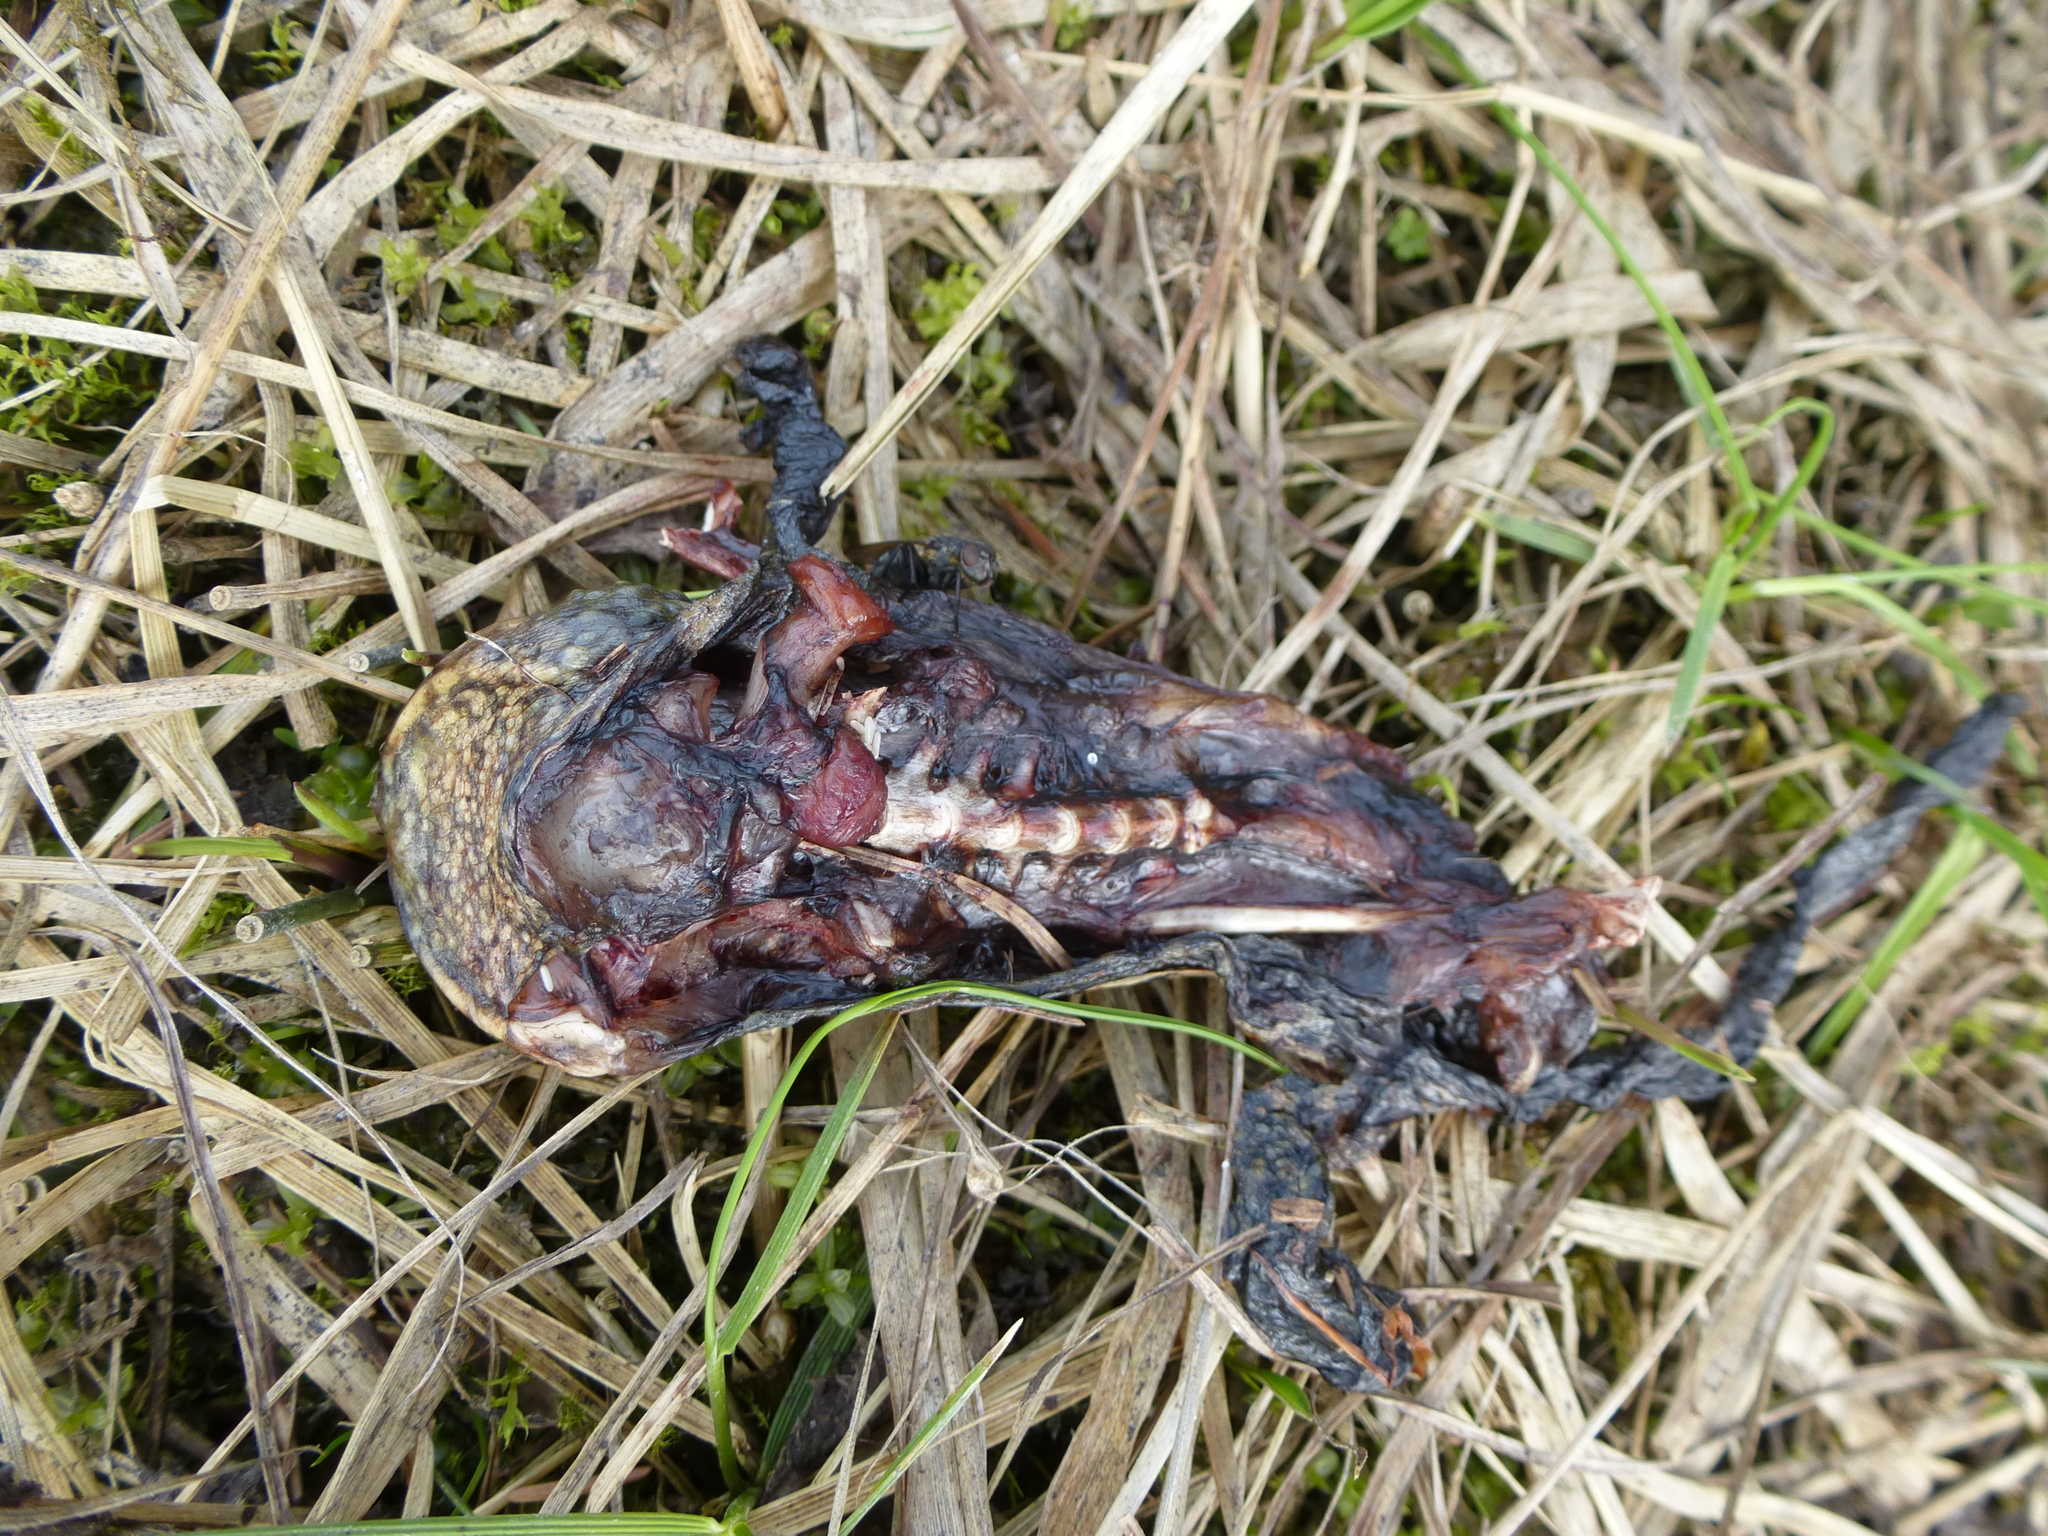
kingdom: Animalia
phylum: Chordata
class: Amphibia
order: Anura
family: Bufonidae
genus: Bufo
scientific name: Bufo bufo
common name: Common toad
